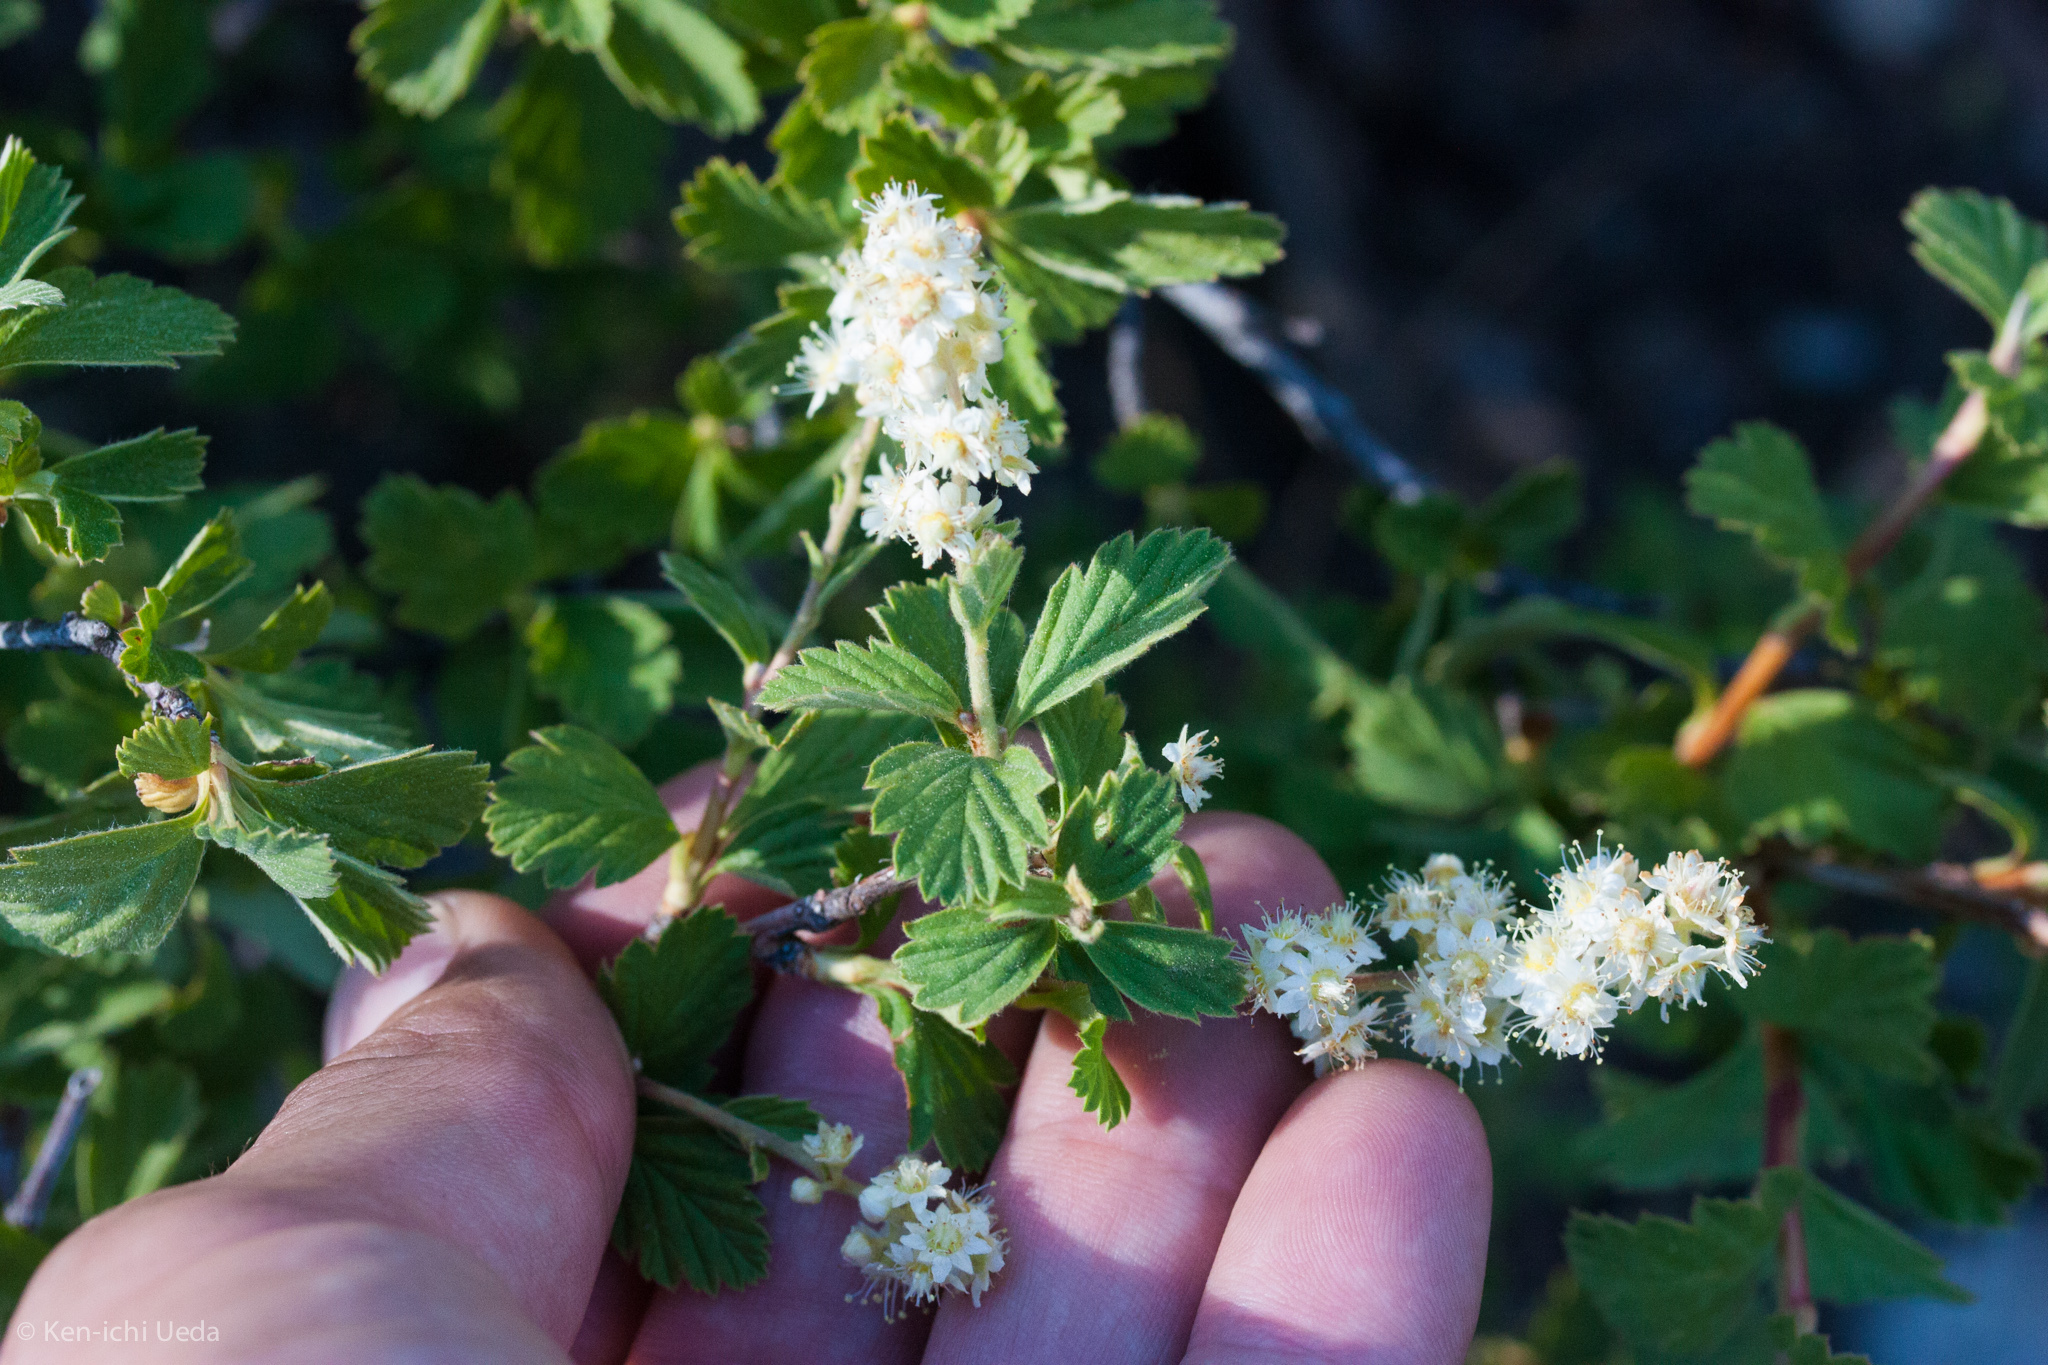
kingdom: Plantae
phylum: Tracheophyta
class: Magnoliopsida
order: Rosales
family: Rosaceae
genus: Holodiscus
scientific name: Holodiscus discolor
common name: Oceanspray
